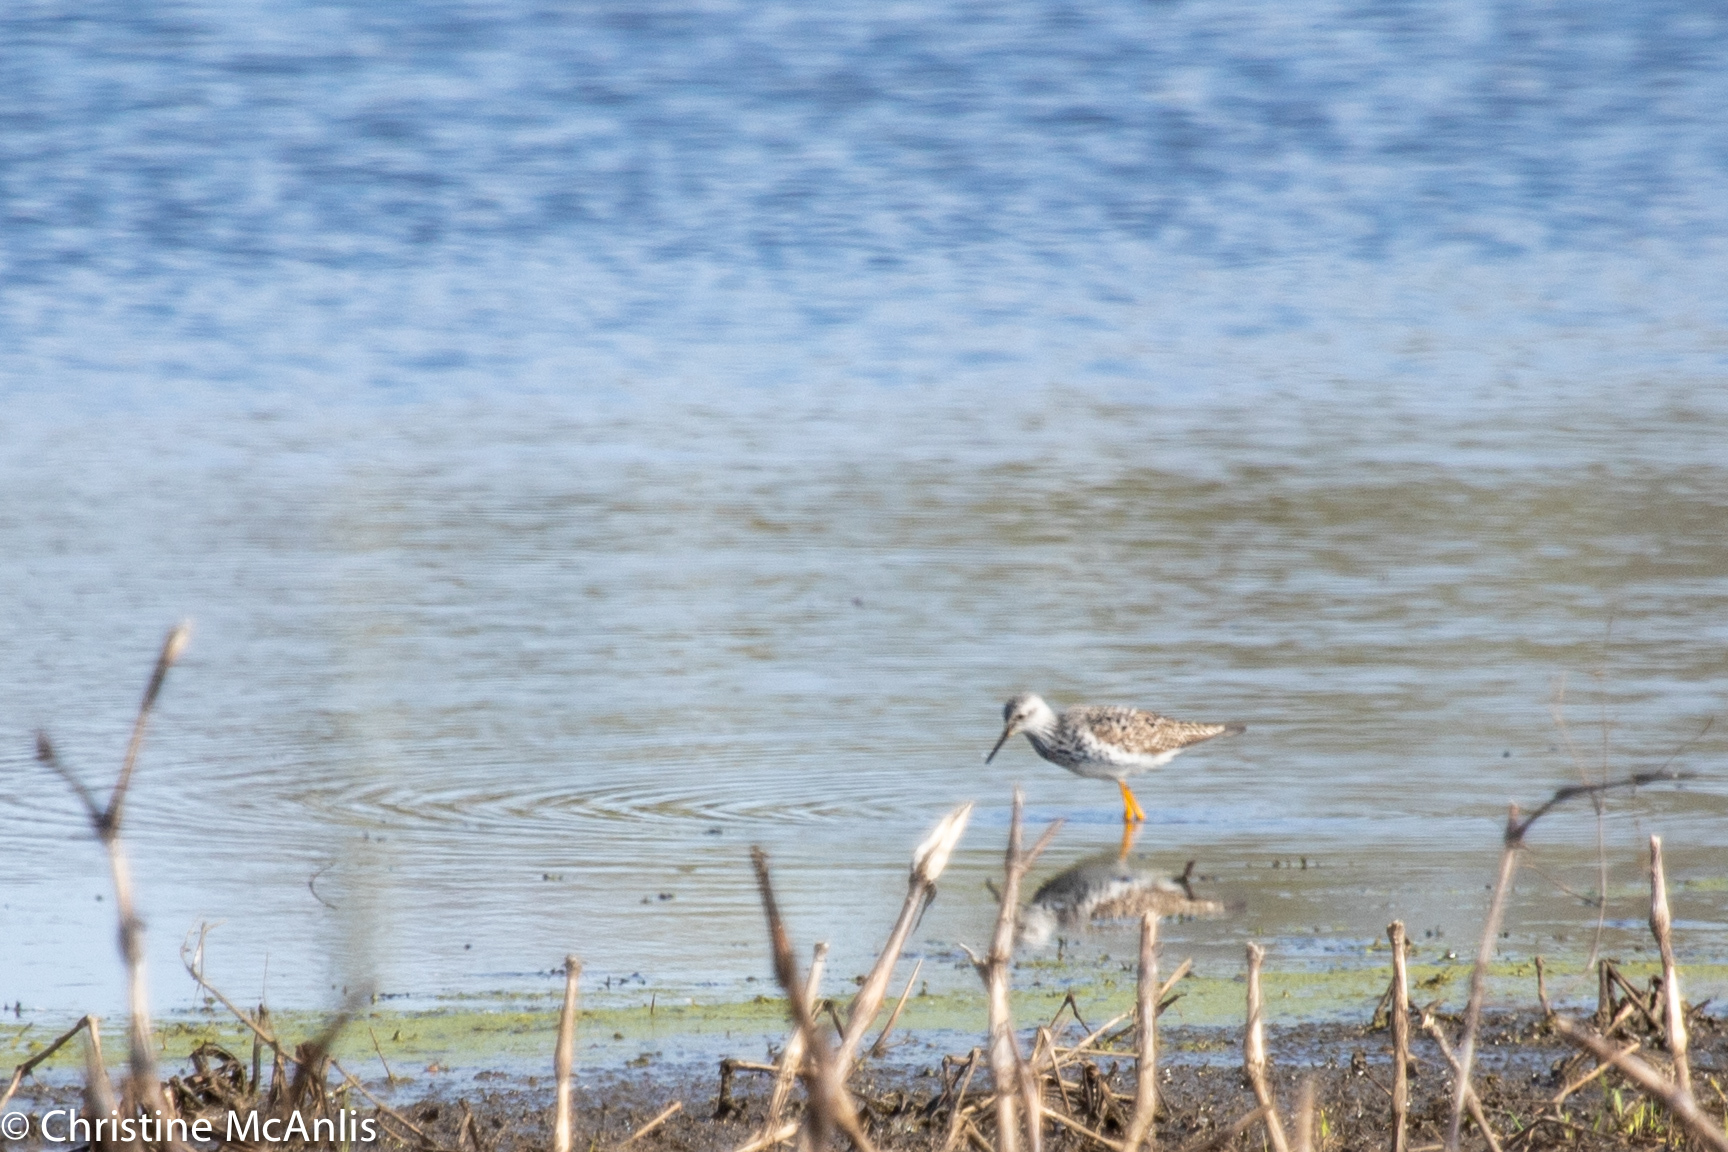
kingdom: Animalia
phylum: Chordata
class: Aves
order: Charadriiformes
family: Scolopacidae
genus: Tringa
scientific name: Tringa flavipes
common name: Lesser yellowlegs
